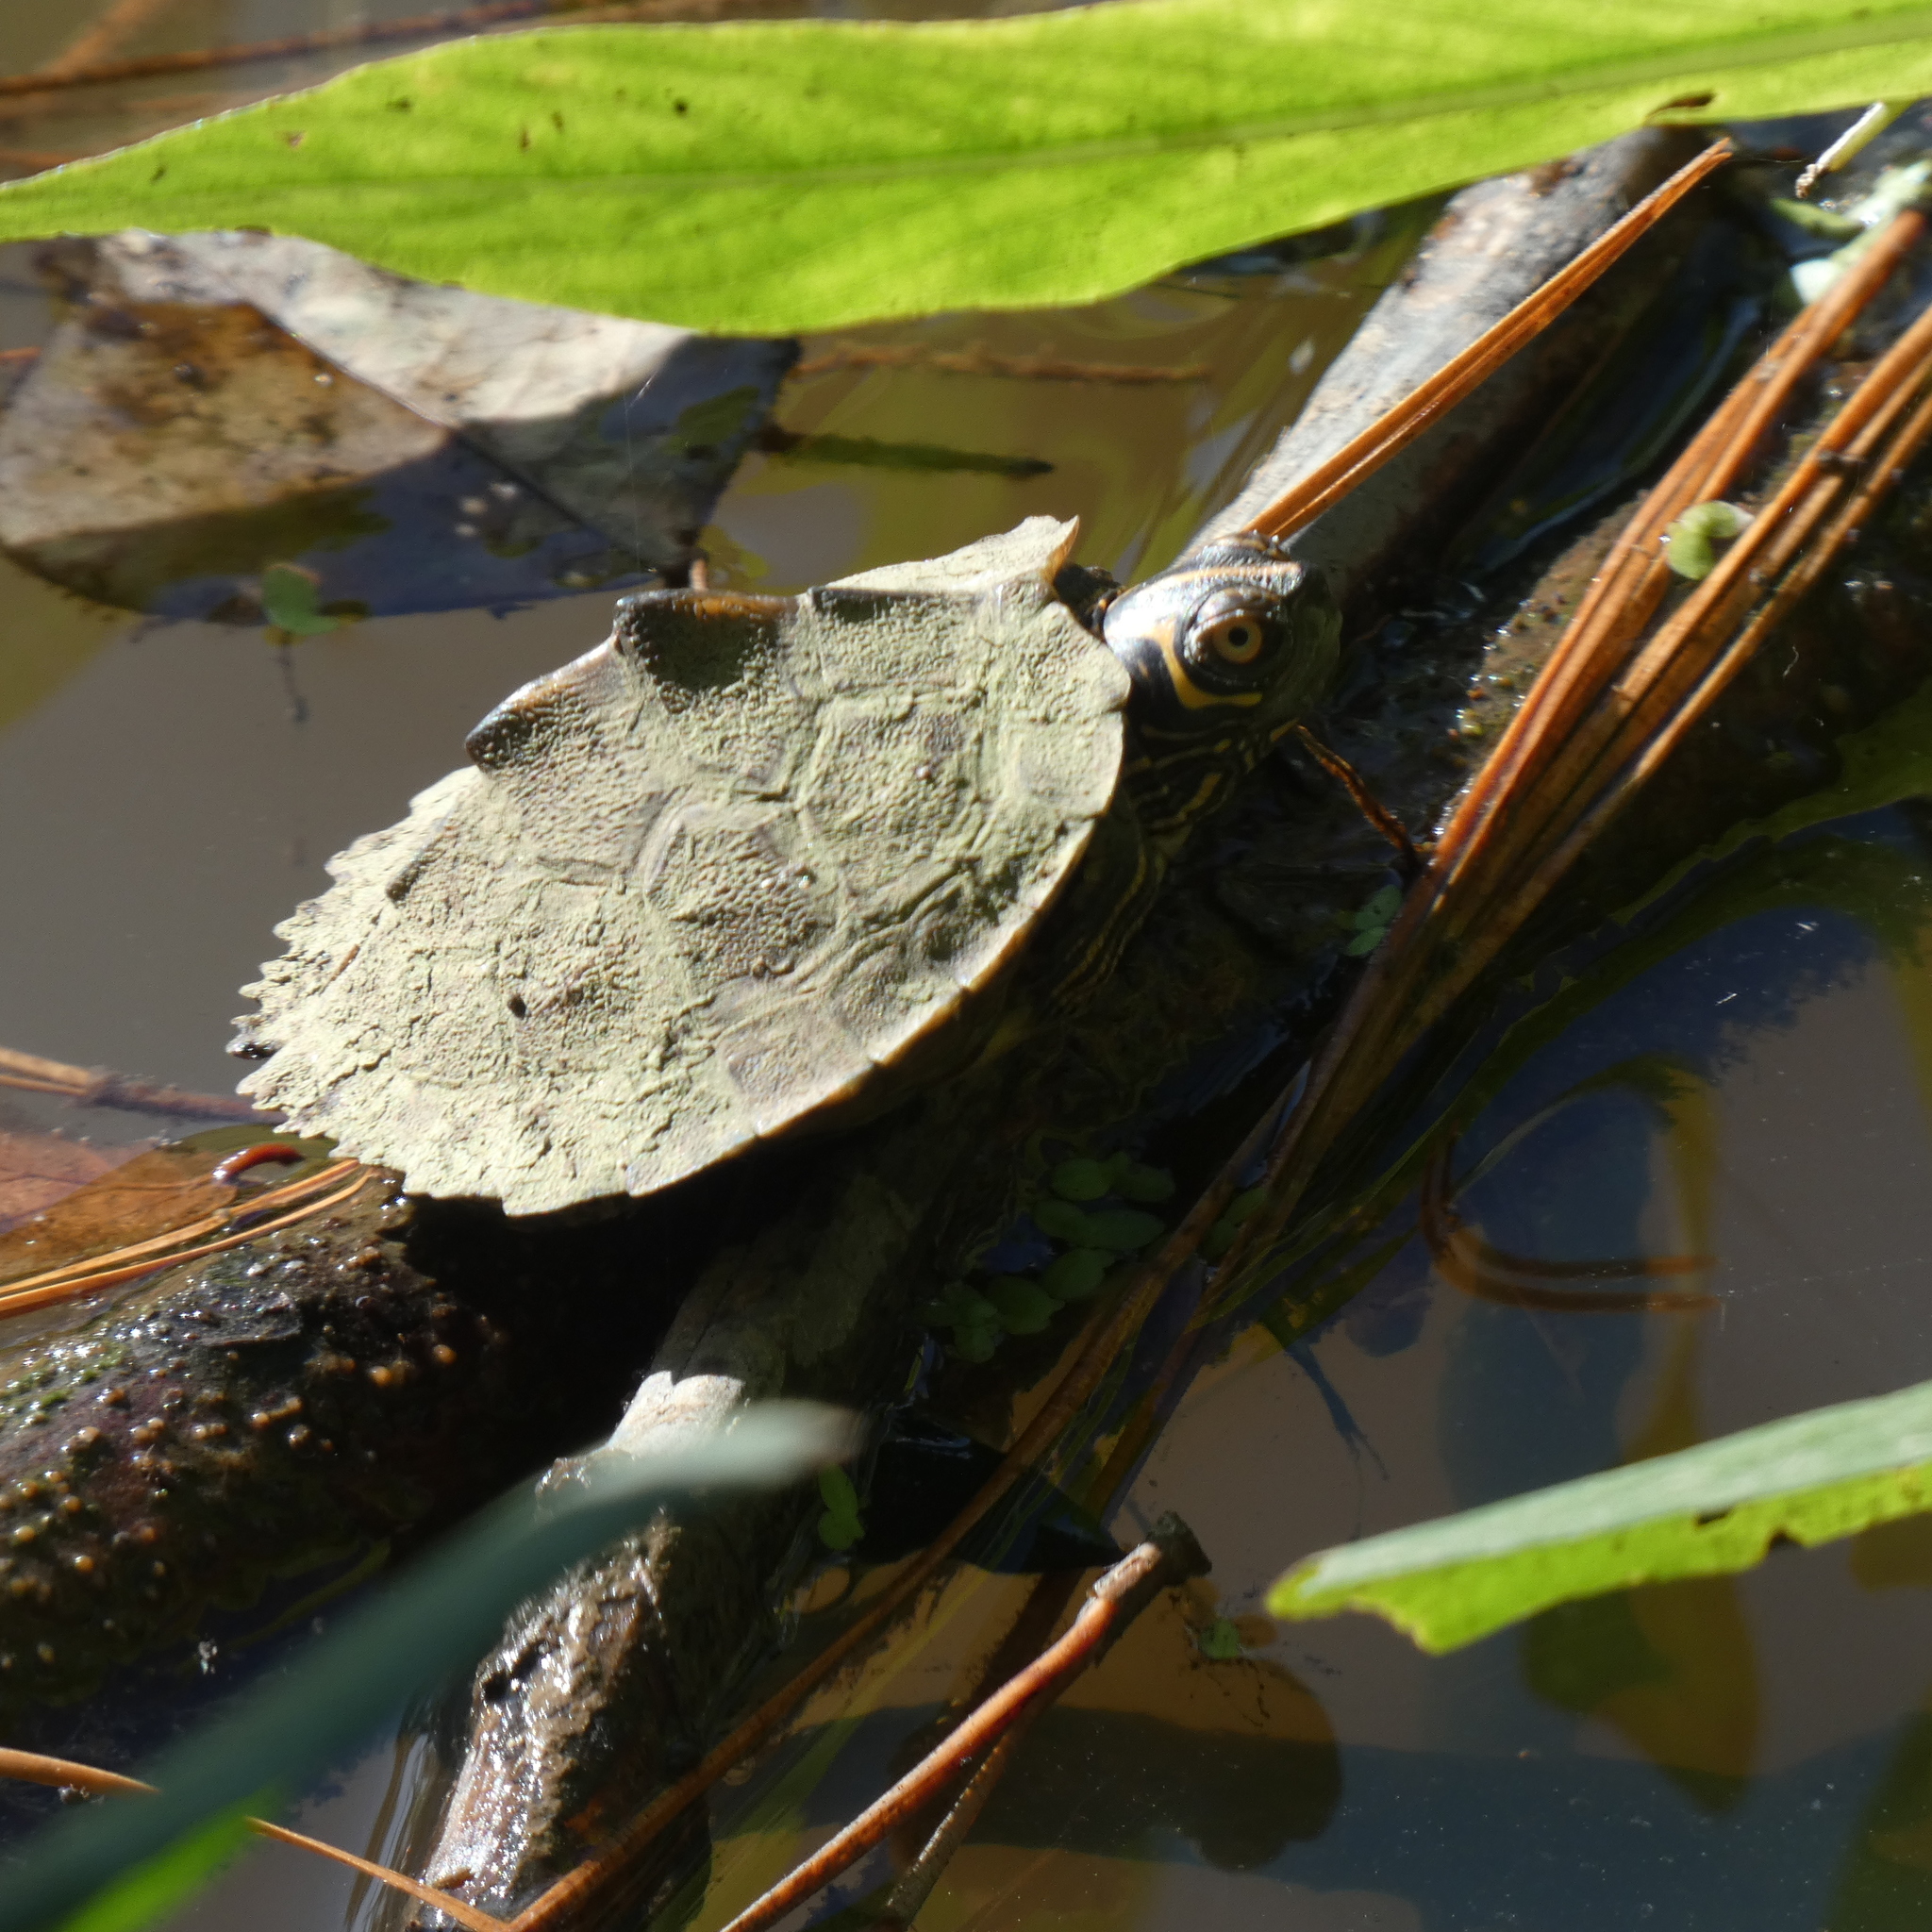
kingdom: Animalia
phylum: Chordata
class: Testudines
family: Emydidae
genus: Graptemys
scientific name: Graptemys pseudogeographica
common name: False map turtle
